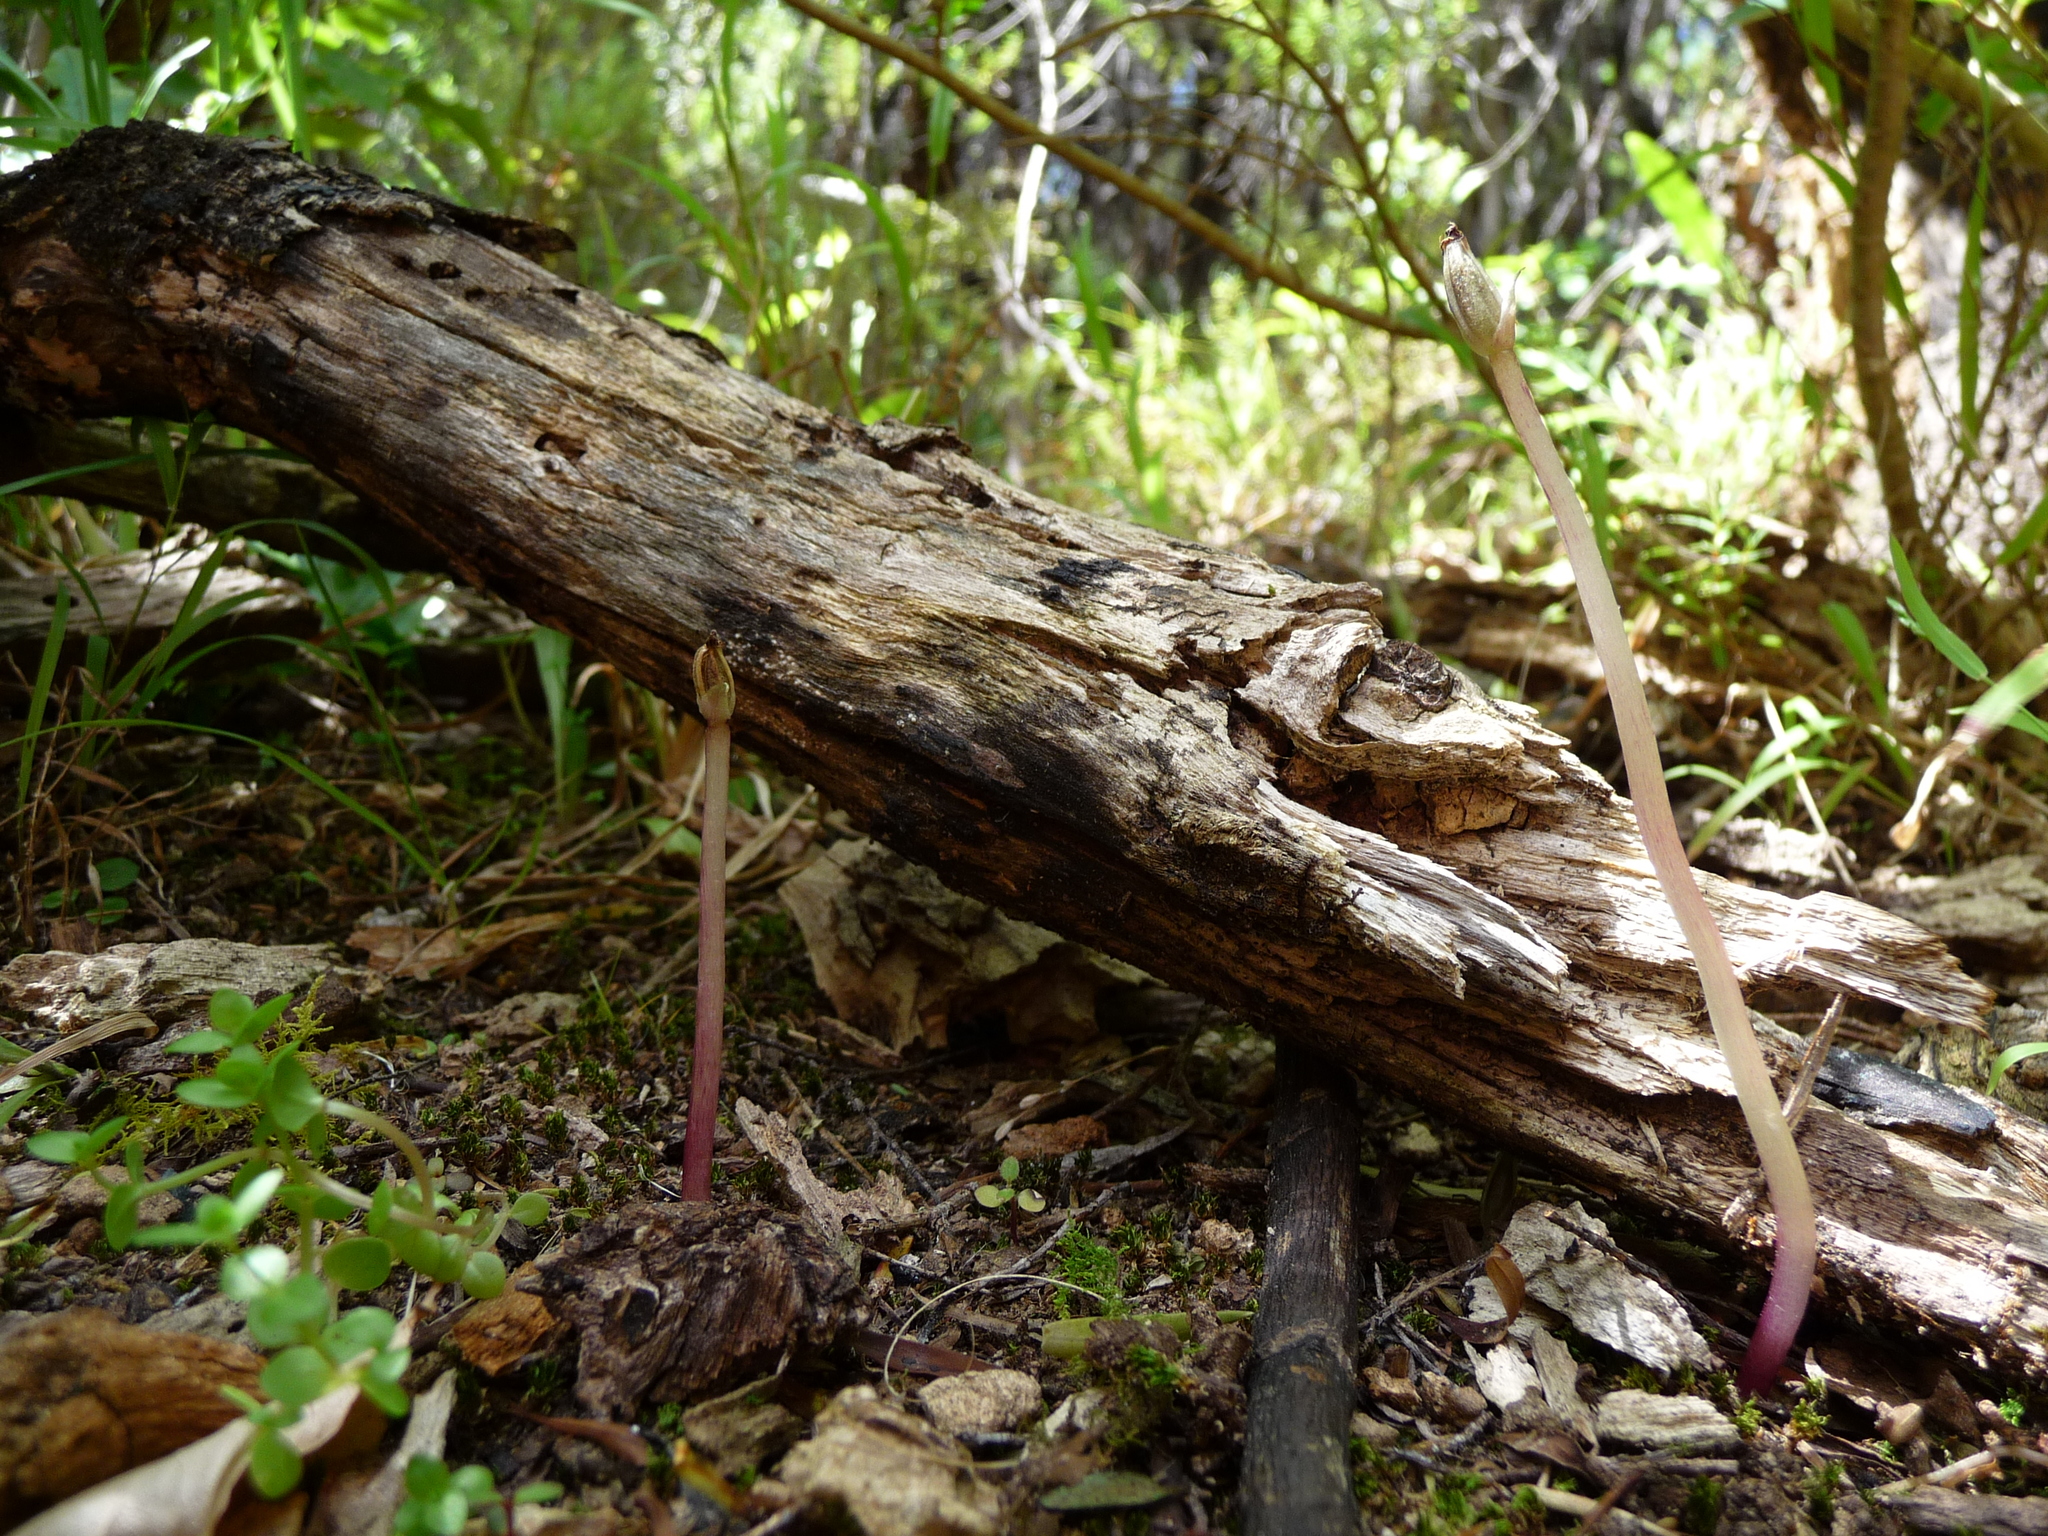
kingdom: Plantae
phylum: Tracheophyta
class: Liliopsida
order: Asparagales
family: Orchidaceae
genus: Corybas
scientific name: Corybas cryptanthus
